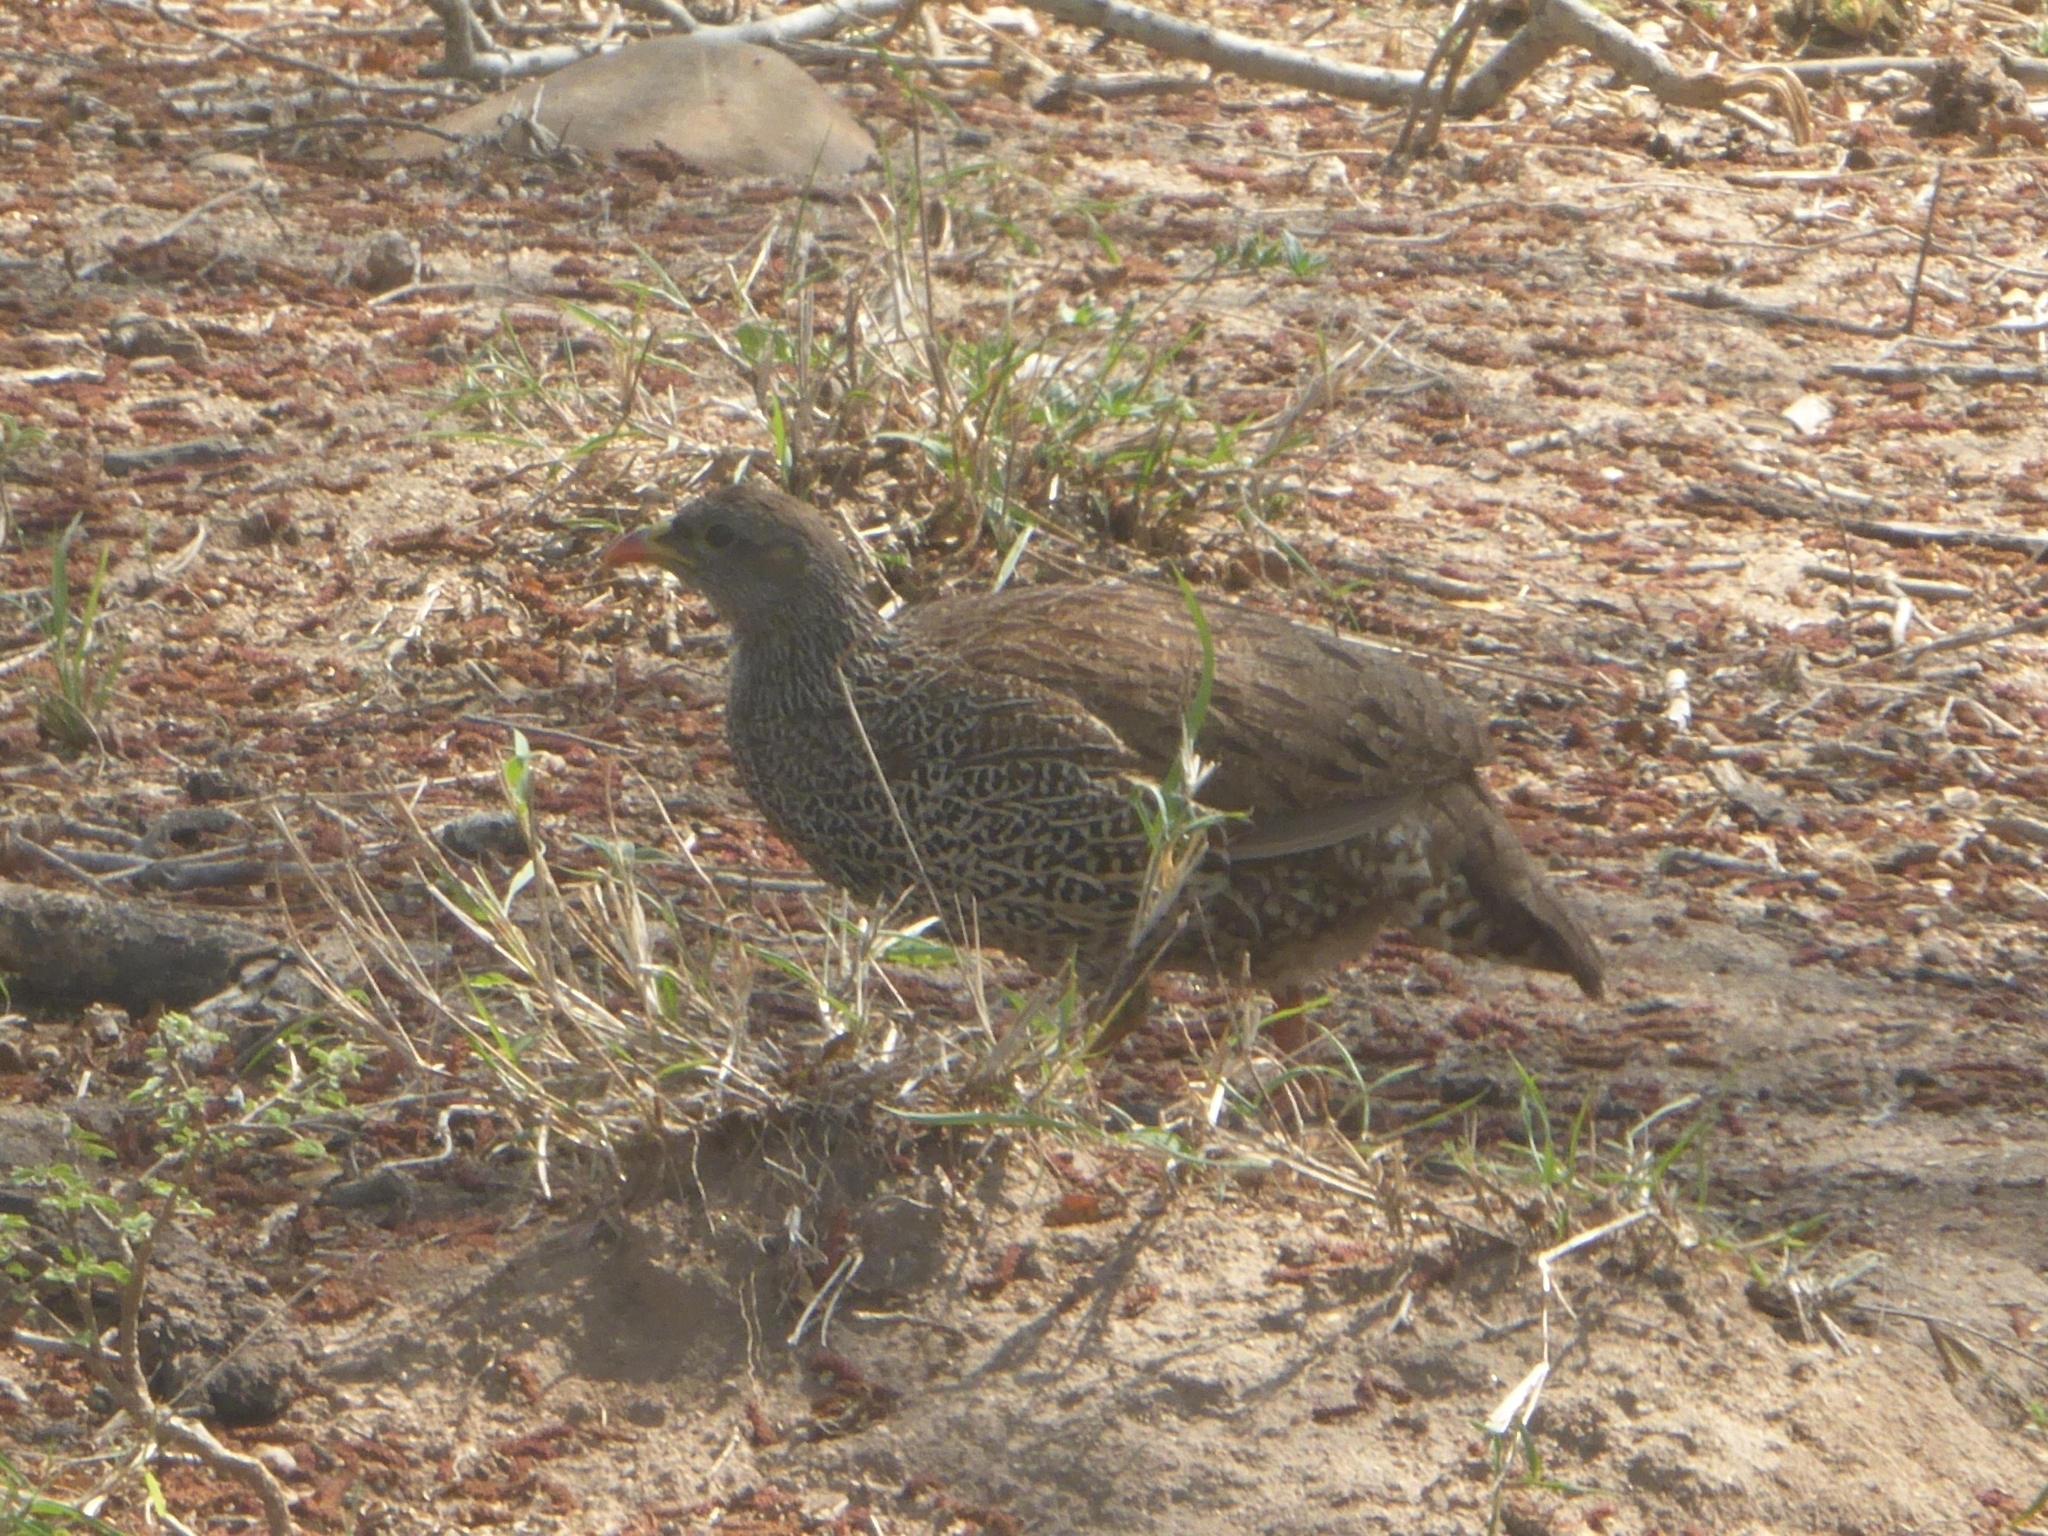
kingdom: Animalia
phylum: Chordata
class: Aves
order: Galliformes
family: Phasianidae
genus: Pternistis
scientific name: Pternistis natalensis
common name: Natal spurfowl
